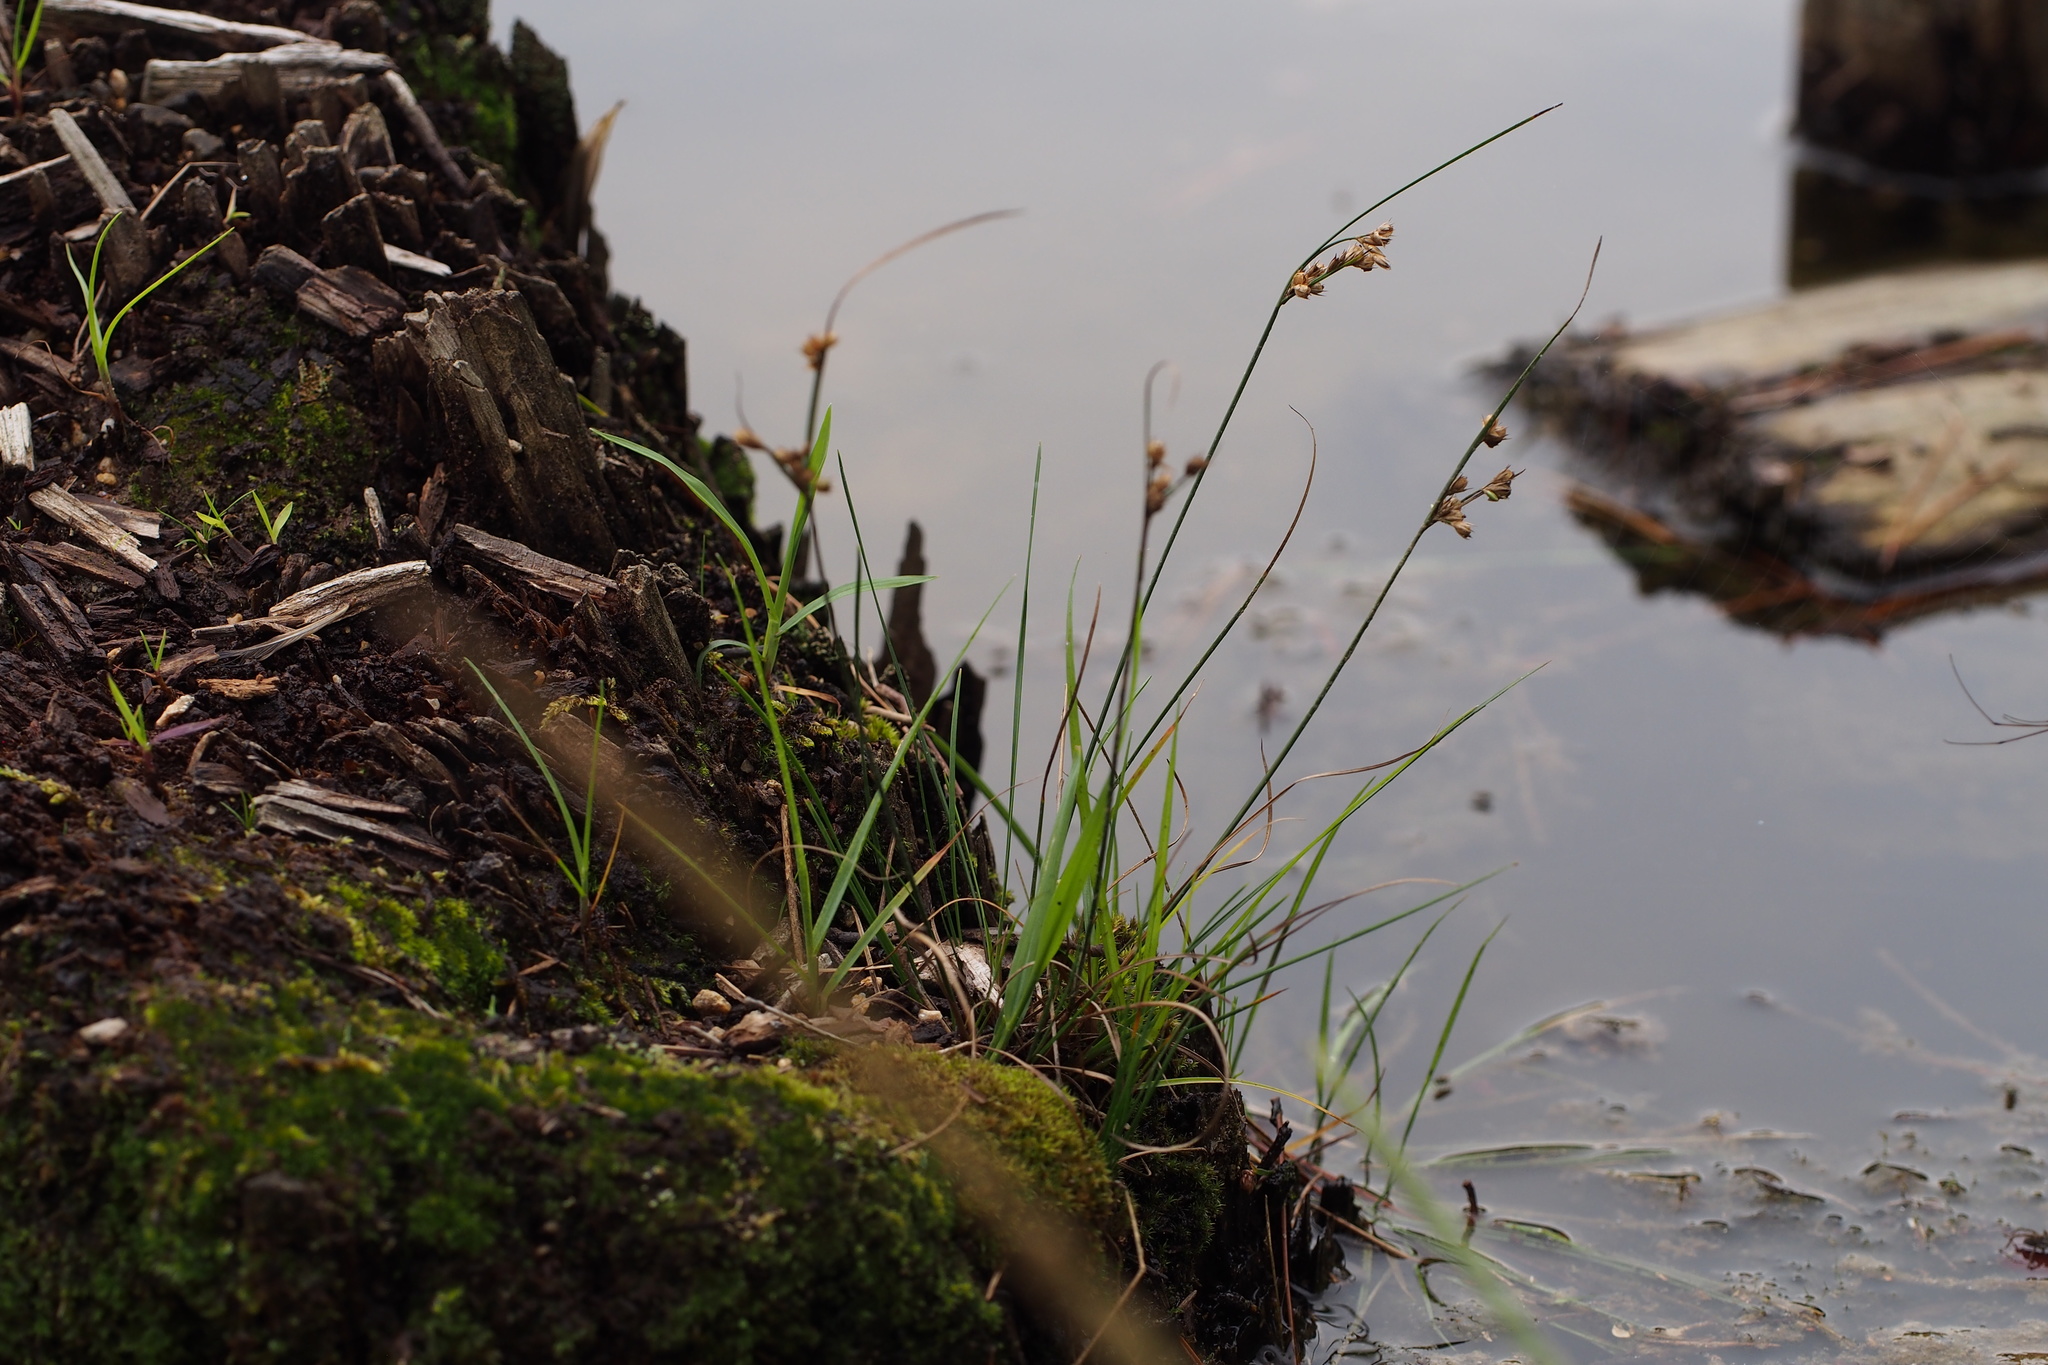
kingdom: Plantae
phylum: Tracheophyta
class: Liliopsida
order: Poales
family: Juncaceae
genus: Juncus
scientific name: Juncus tenuis
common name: Slender rush
